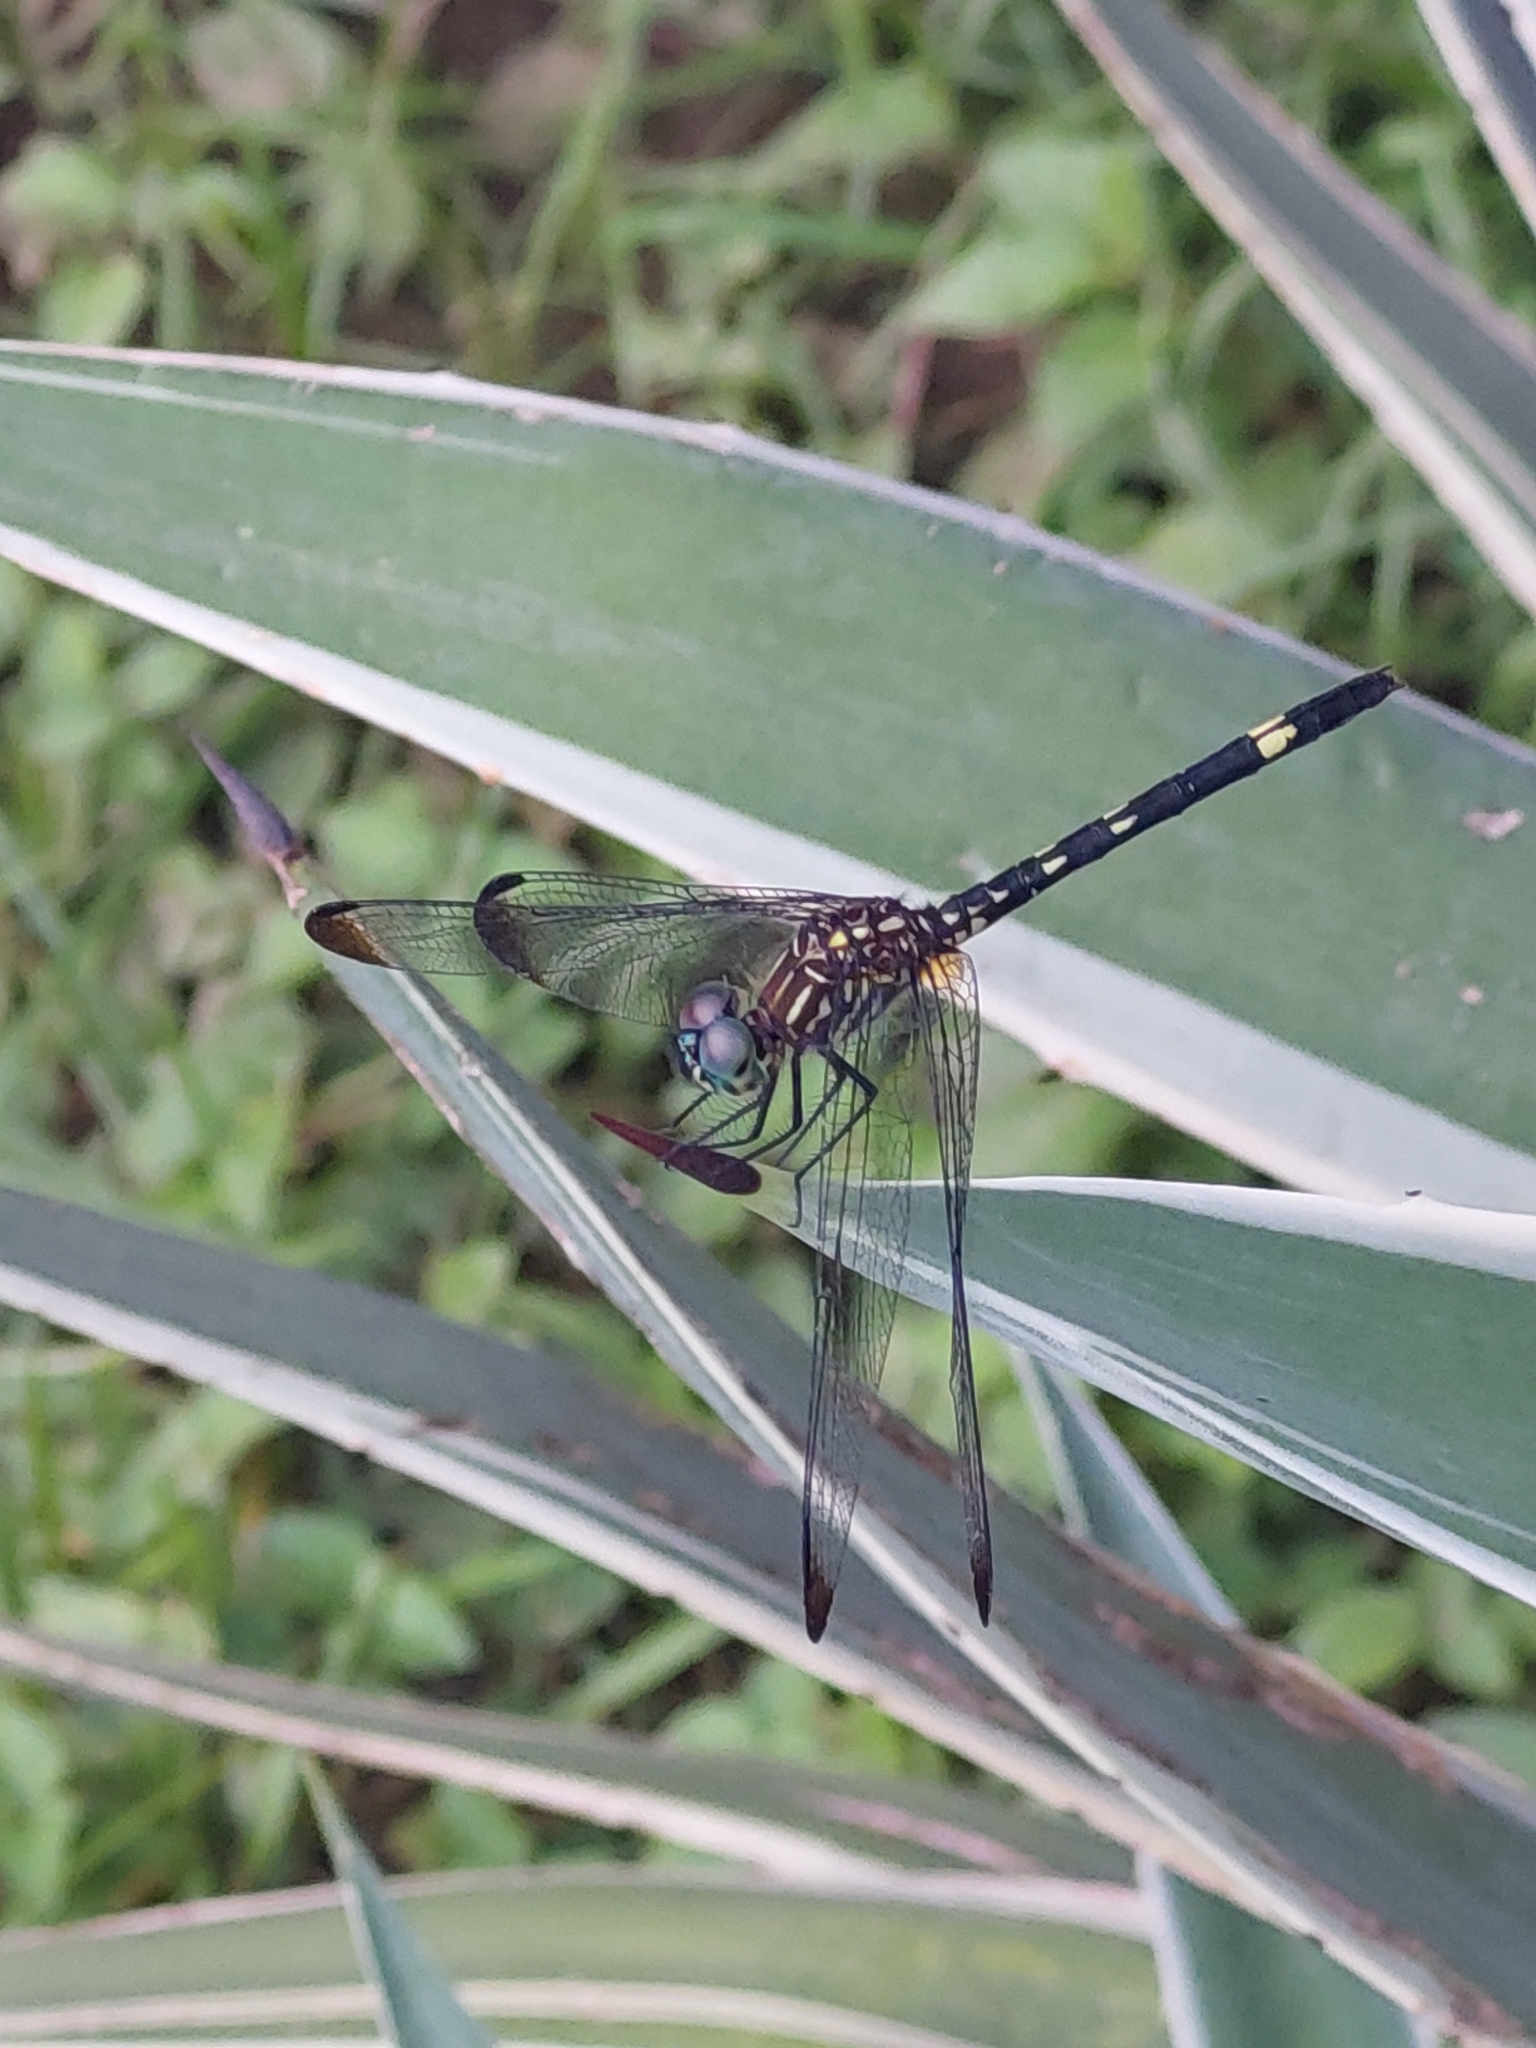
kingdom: Animalia
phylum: Arthropoda
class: Insecta
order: Odonata
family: Libellulidae
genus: Dythemis
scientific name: Dythemis nigra
